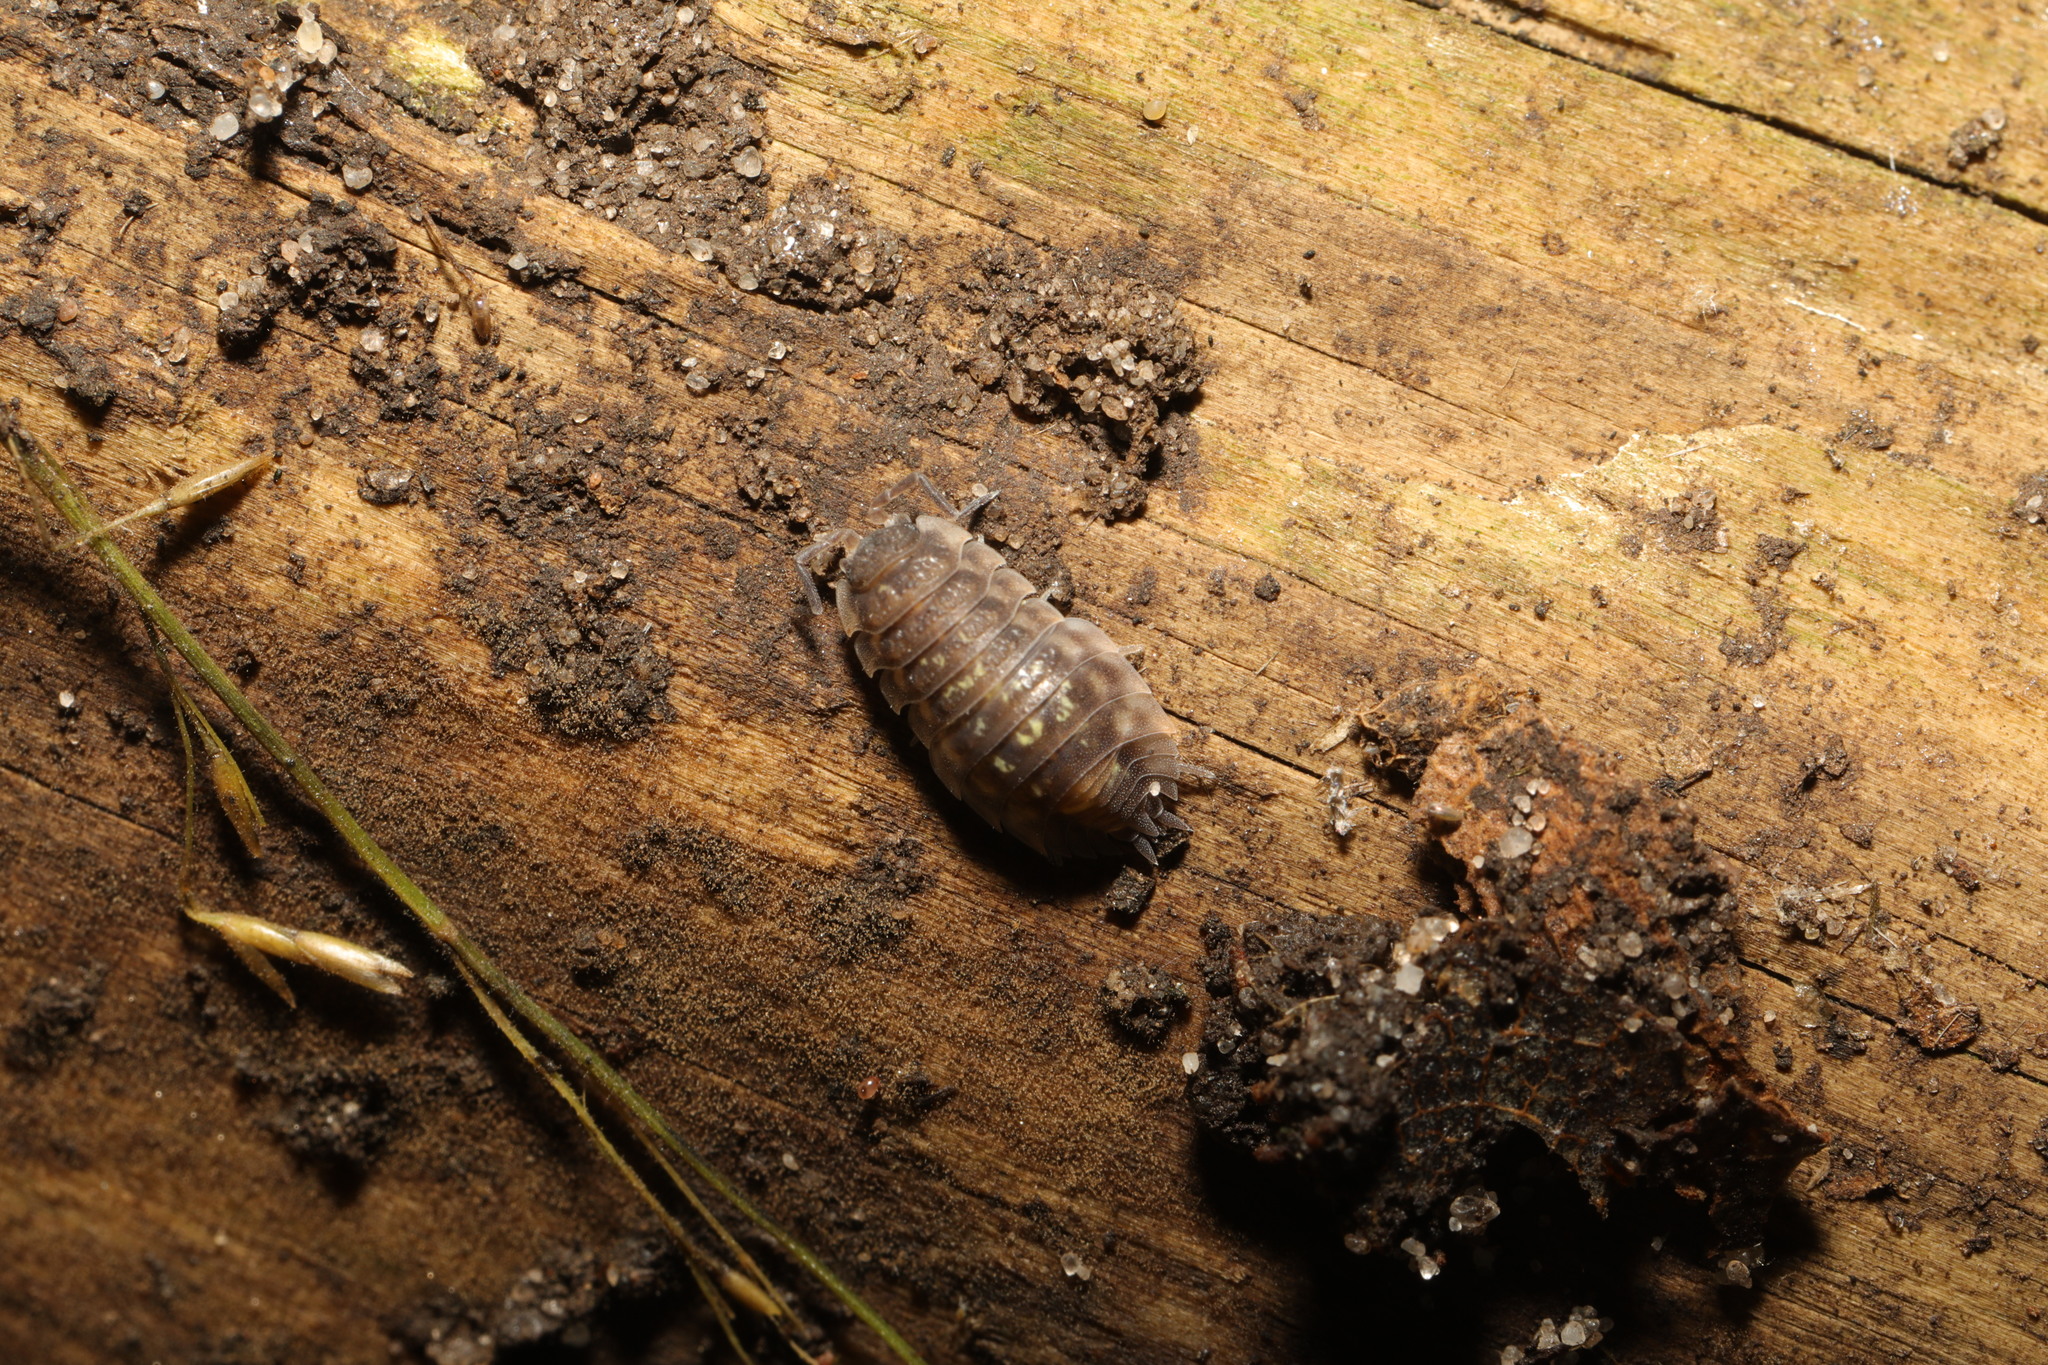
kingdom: Animalia
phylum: Arthropoda
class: Malacostraca
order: Isopoda
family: Oniscidae
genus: Oniscus
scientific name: Oniscus asellus
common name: Common shiny woodlouse
